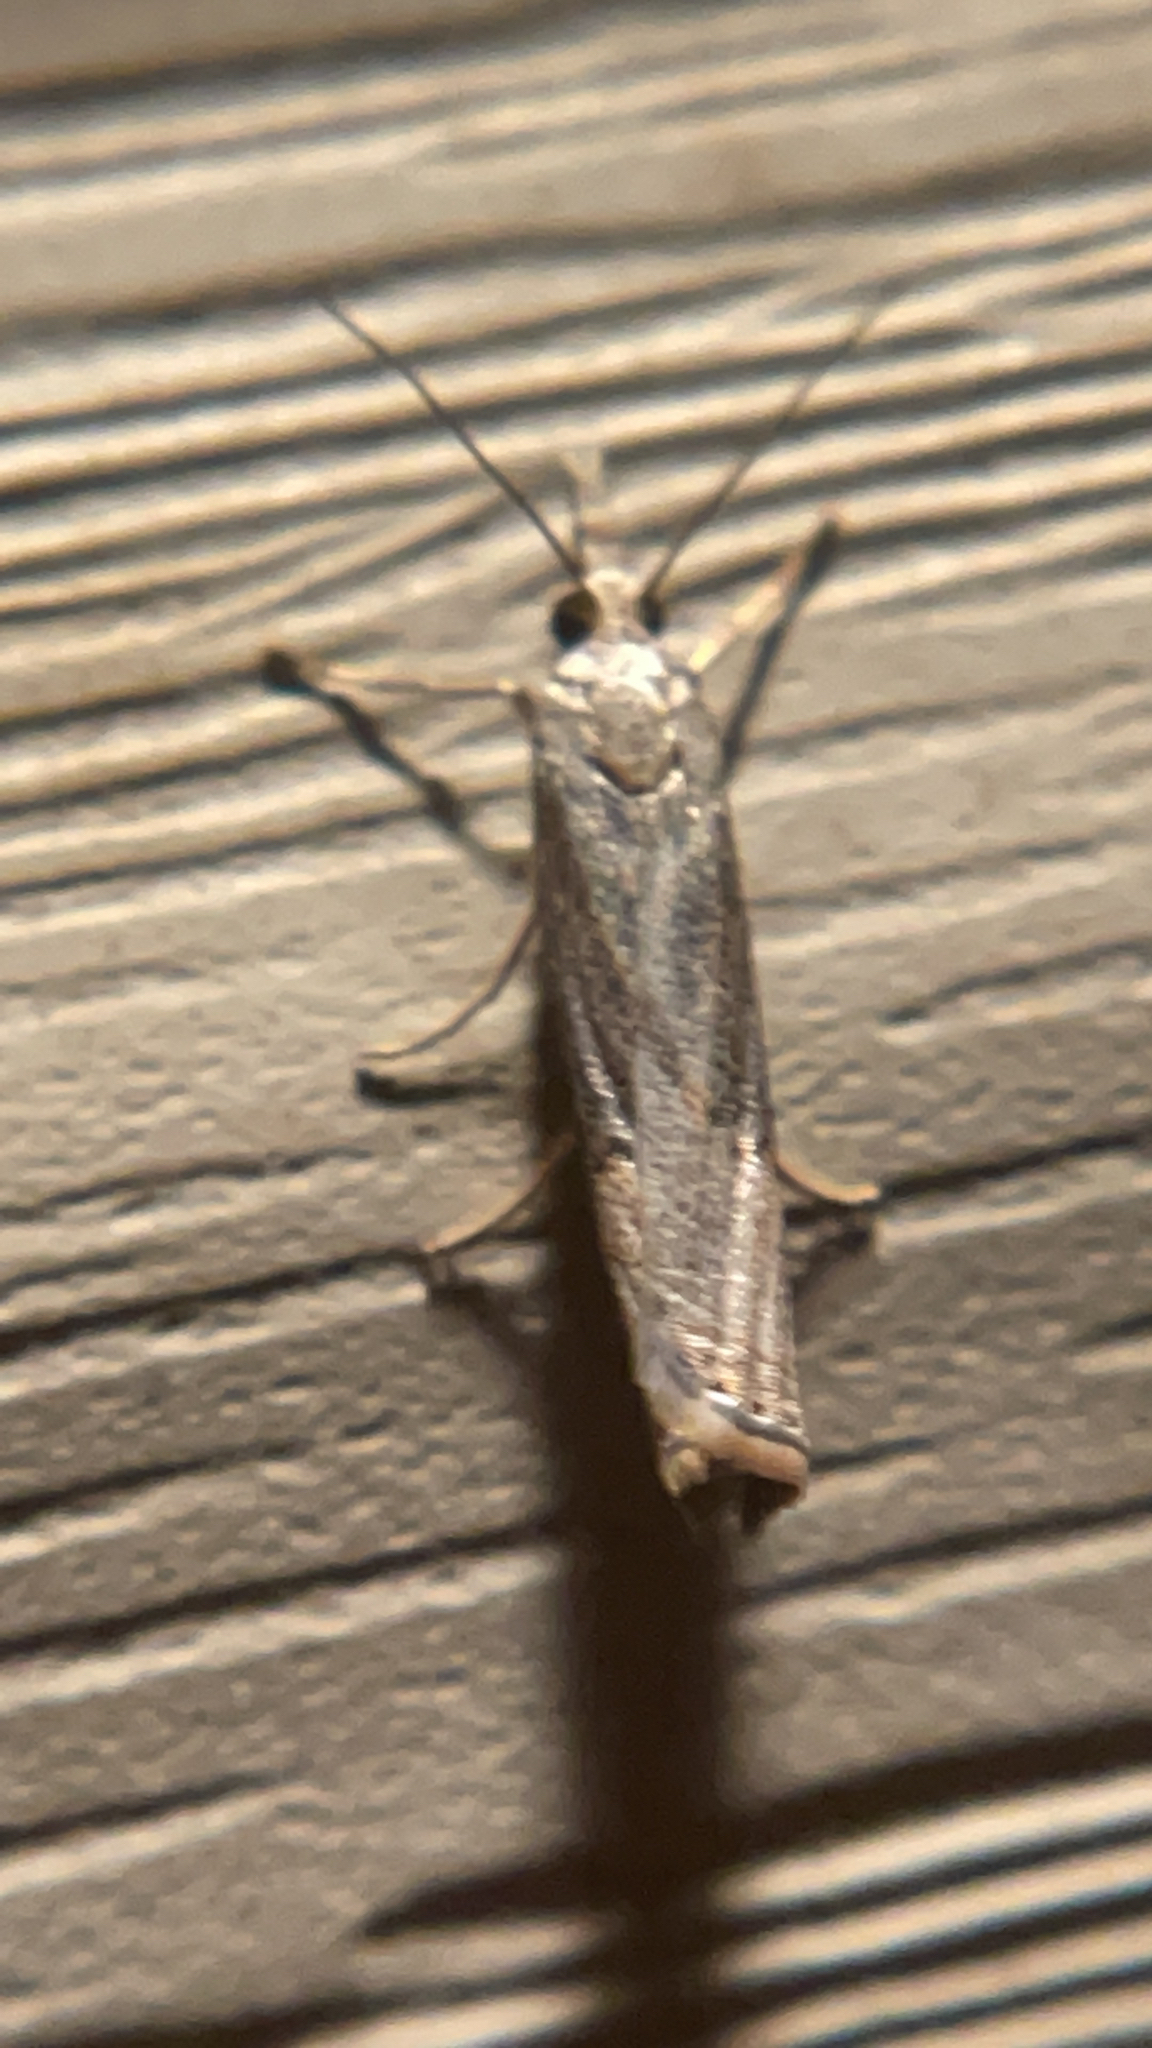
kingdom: Animalia
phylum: Arthropoda
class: Insecta
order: Lepidoptera
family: Crambidae
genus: Parapediasia
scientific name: Parapediasia teterellus
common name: Bluegrass webworm moth
